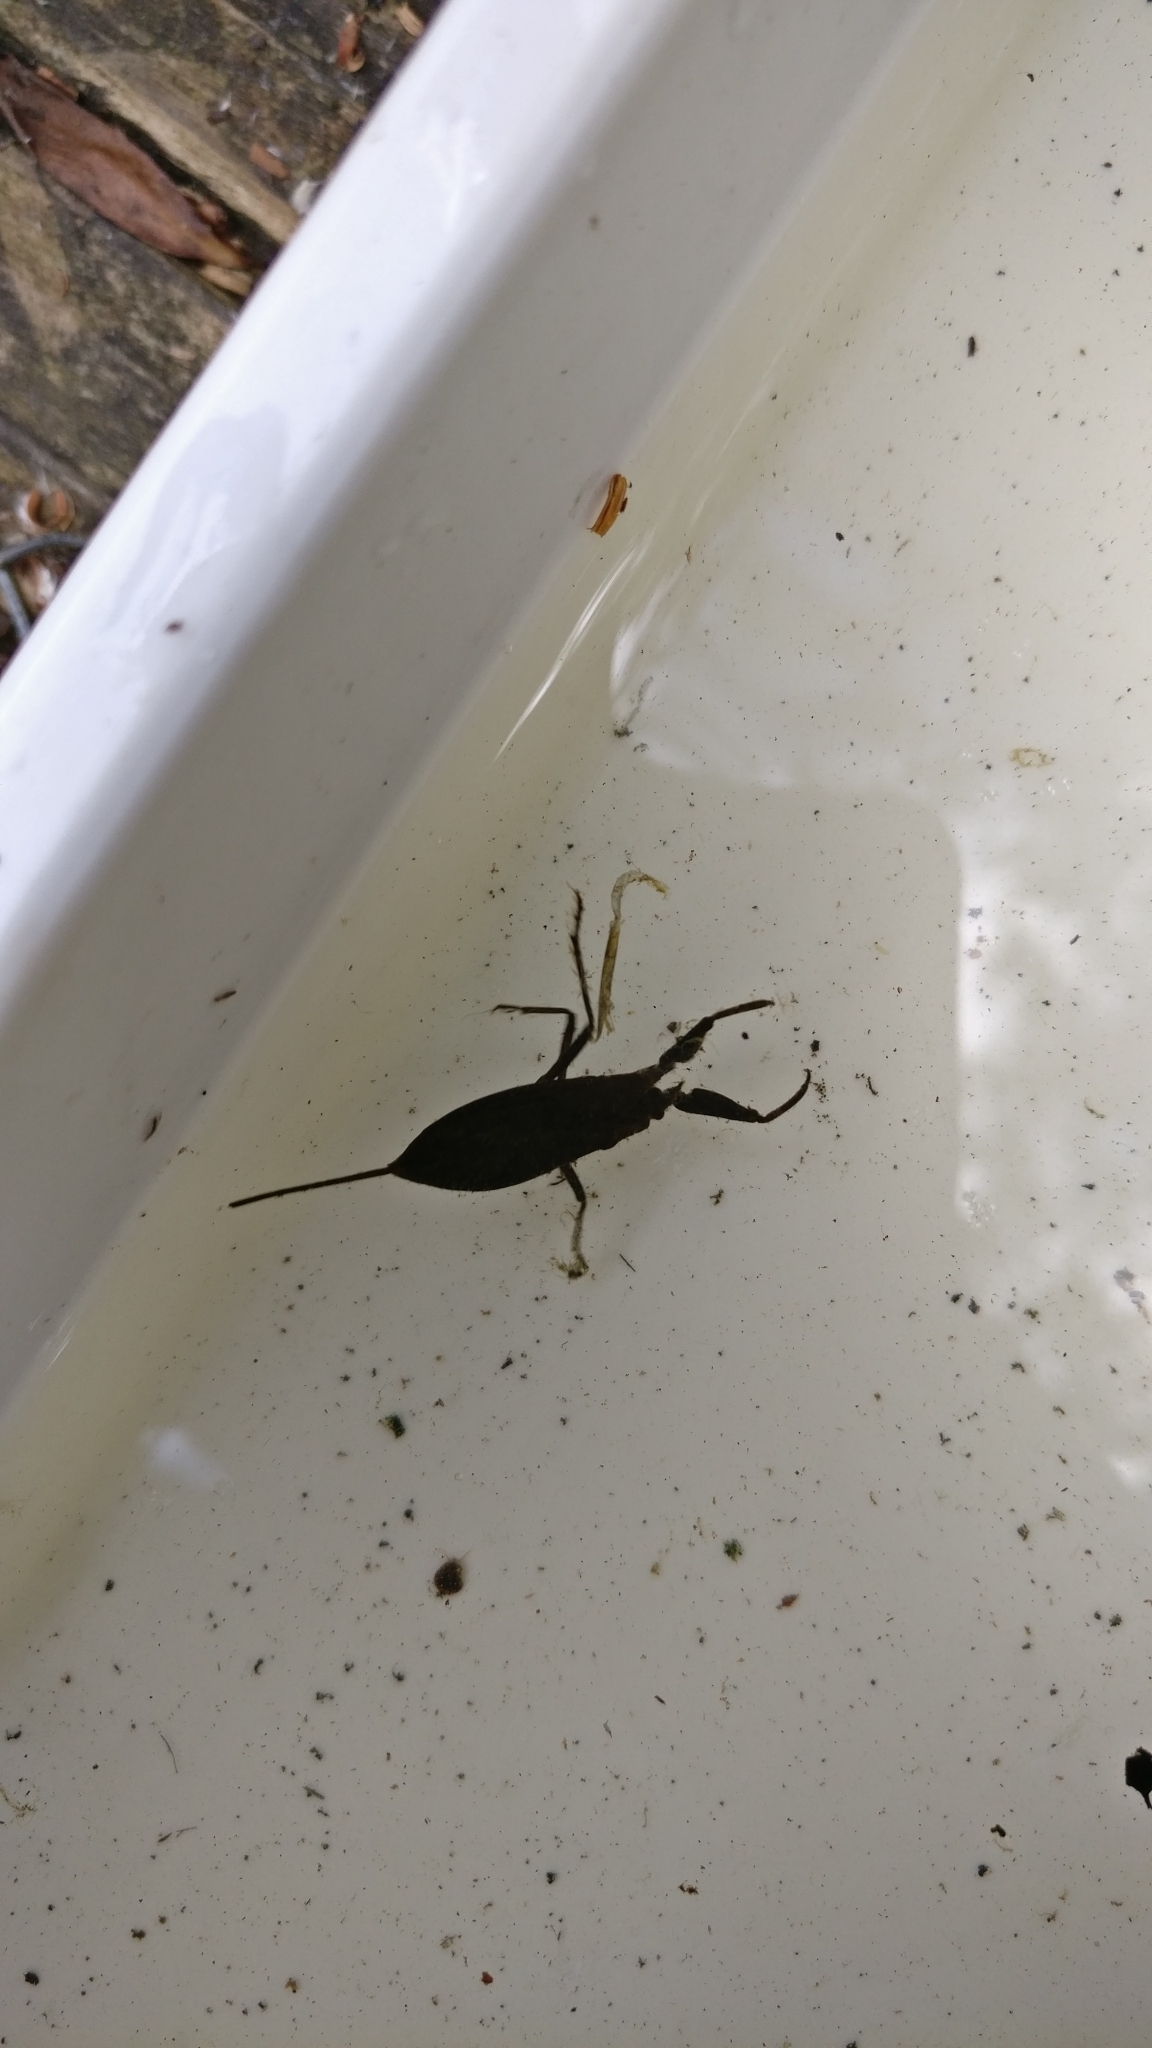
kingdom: Animalia
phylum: Arthropoda
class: Insecta
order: Hemiptera
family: Nepidae
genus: Nepa
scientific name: Nepa cinerea
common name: Water scorpion
